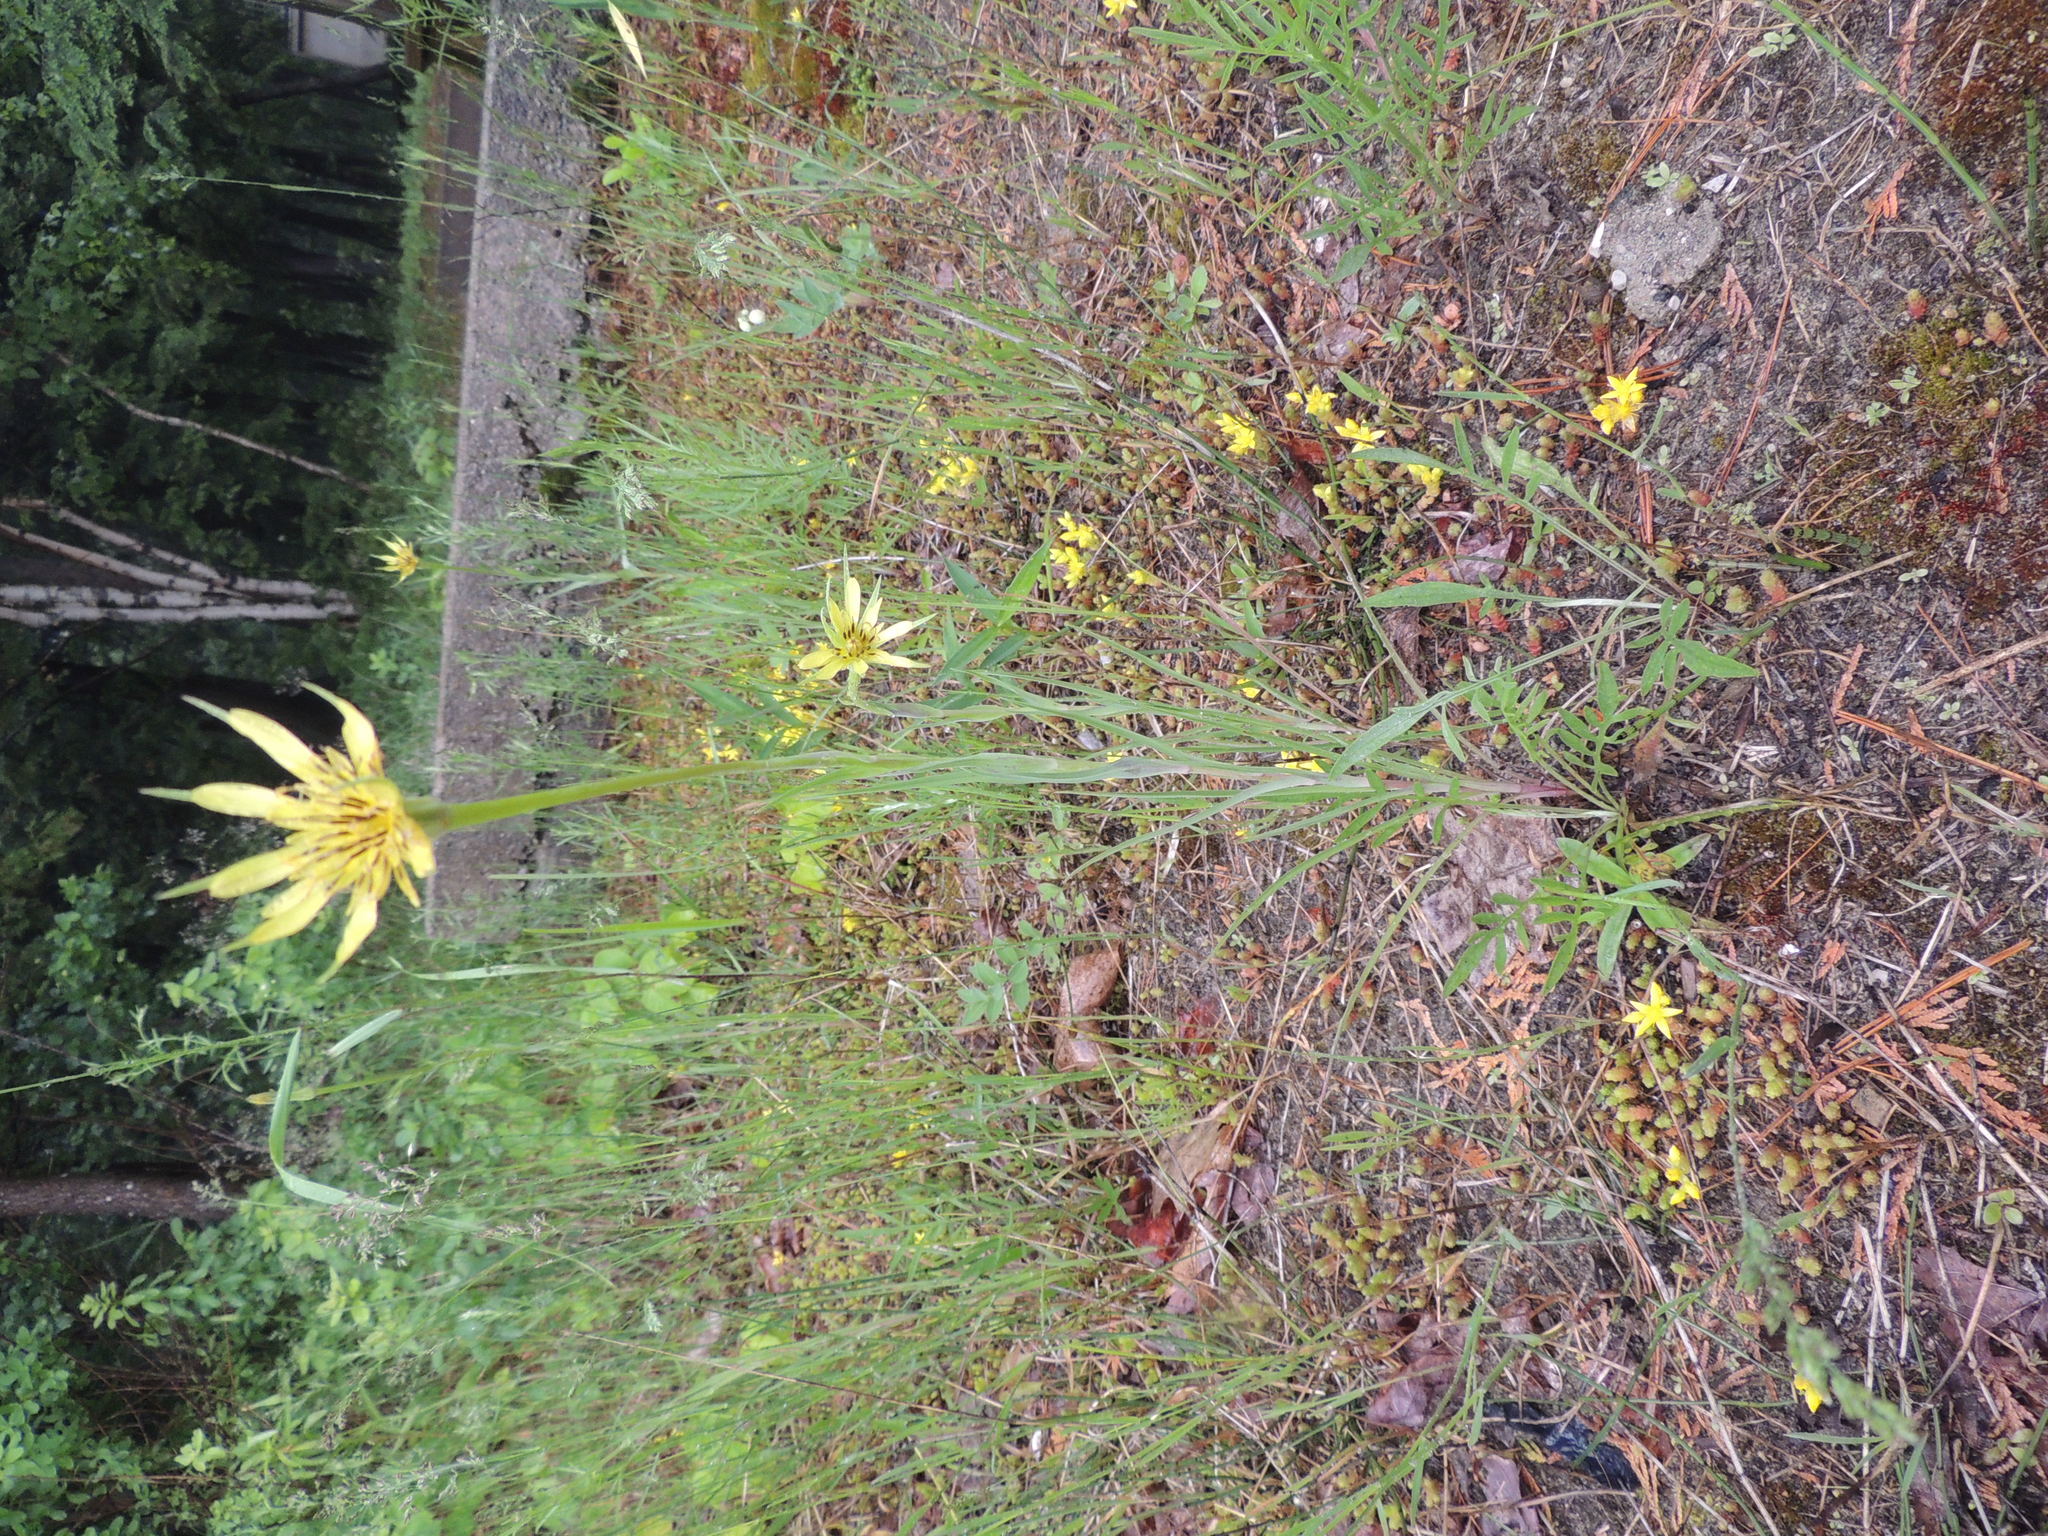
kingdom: Plantae
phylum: Tracheophyta
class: Magnoliopsida
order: Asterales
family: Asteraceae
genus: Tragopogon
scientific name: Tragopogon dubius
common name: Yellow salsify
